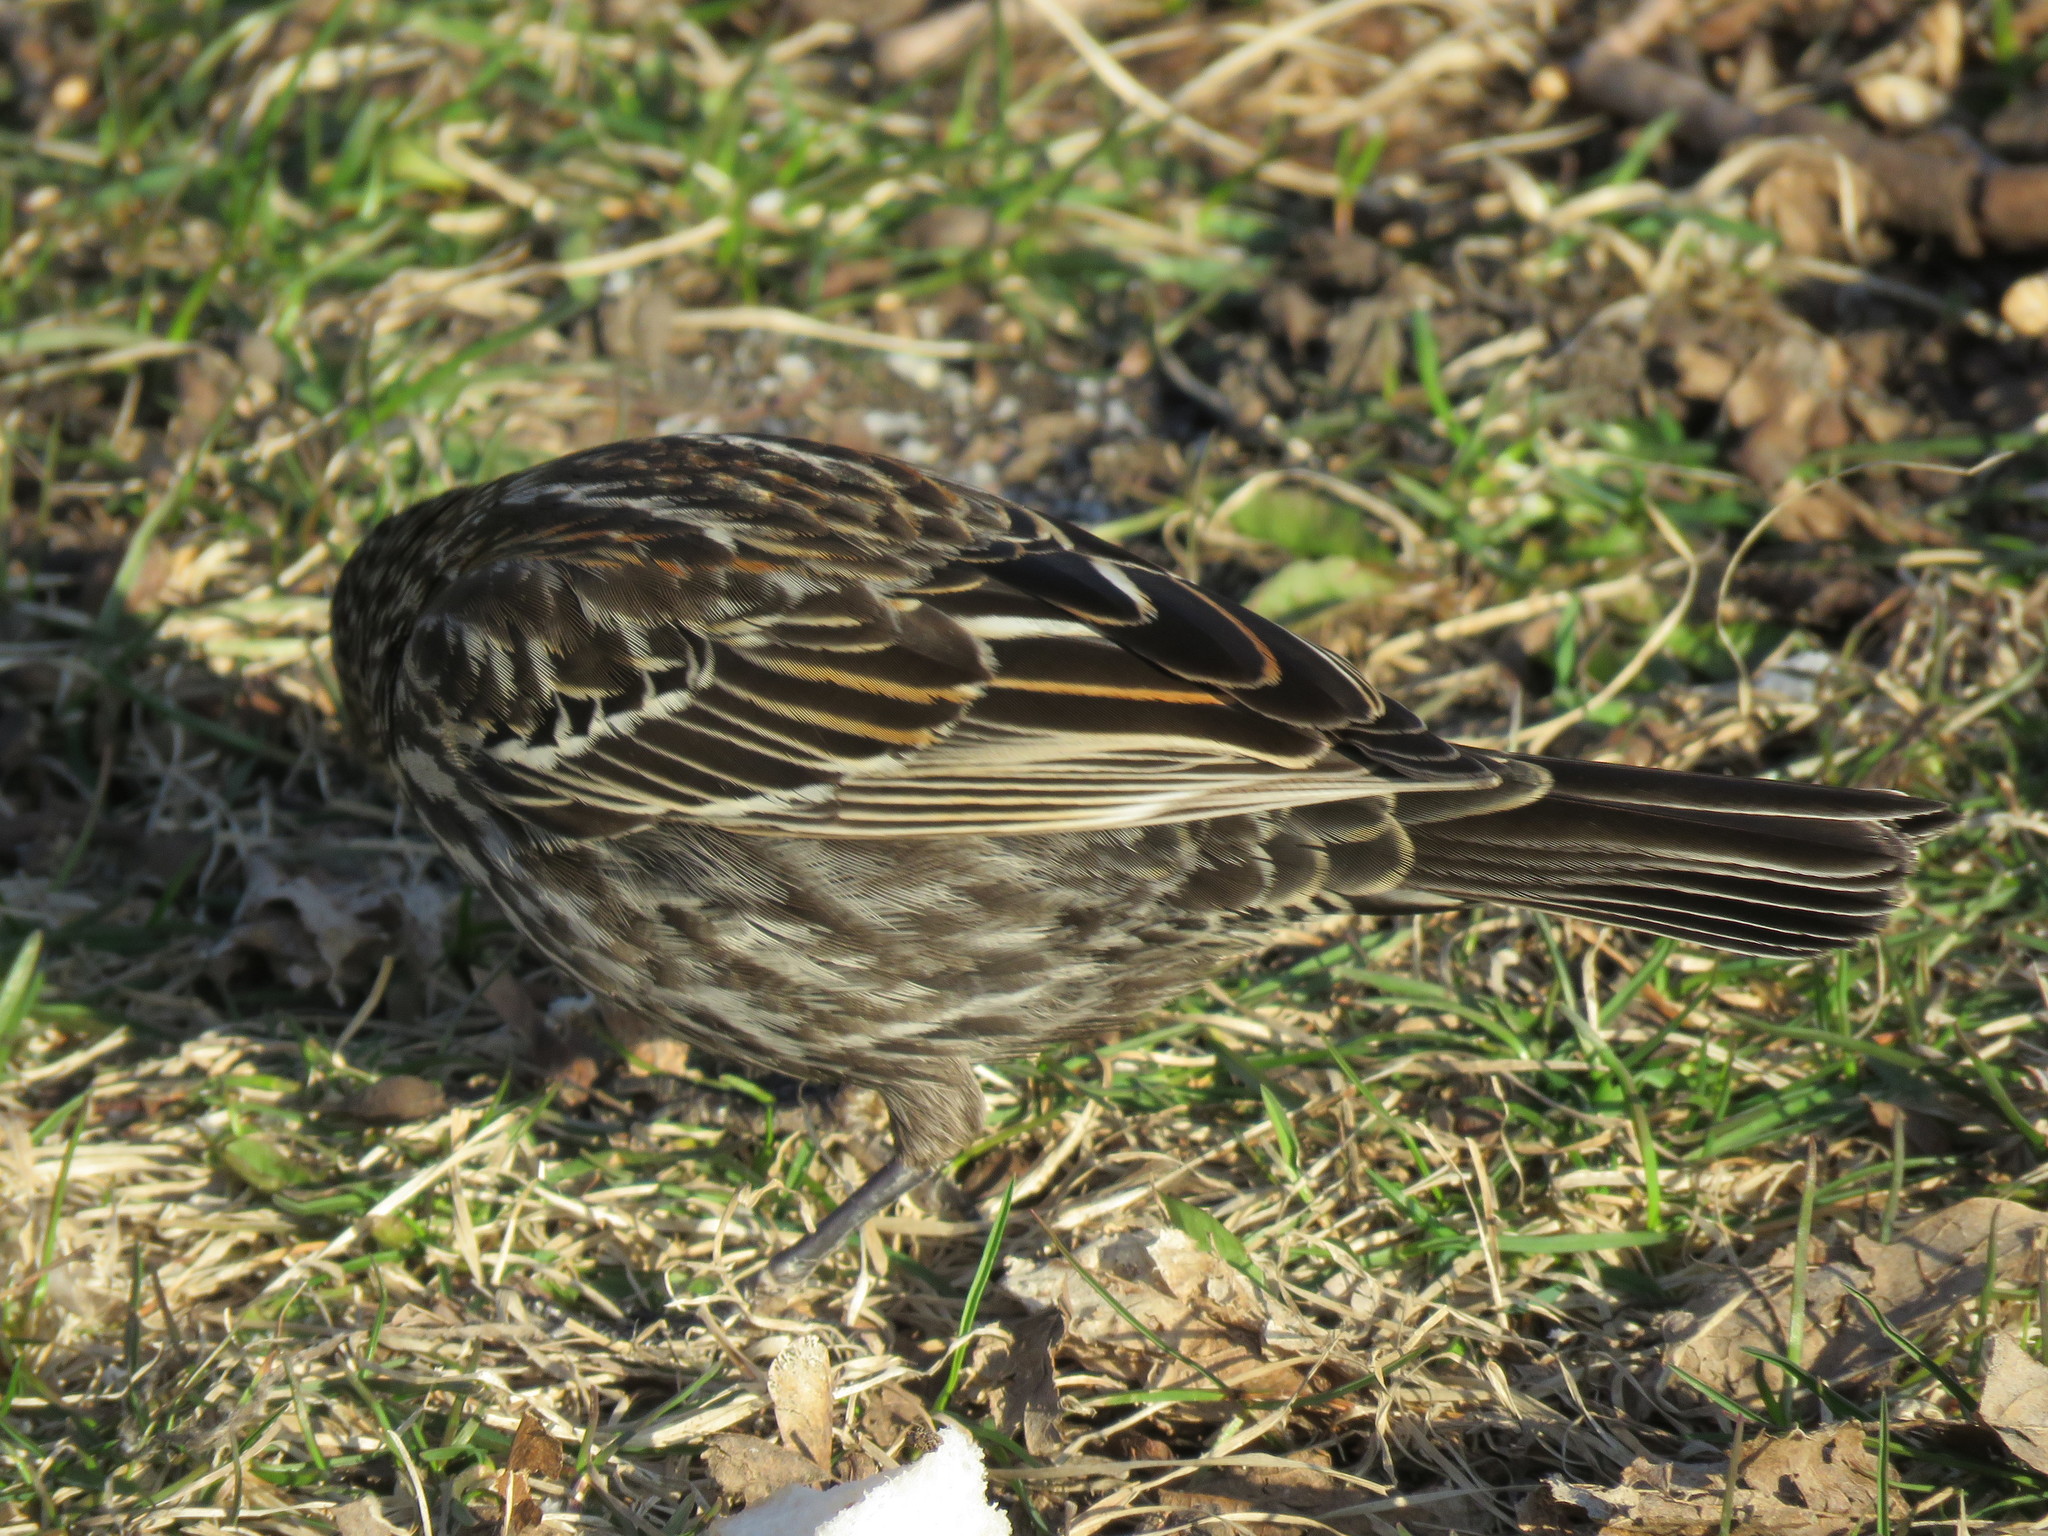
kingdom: Animalia
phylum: Chordata
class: Aves
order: Passeriformes
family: Icteridae
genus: Agelaius
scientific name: Agelaius phoeniceus
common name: Red-winged blackbird
